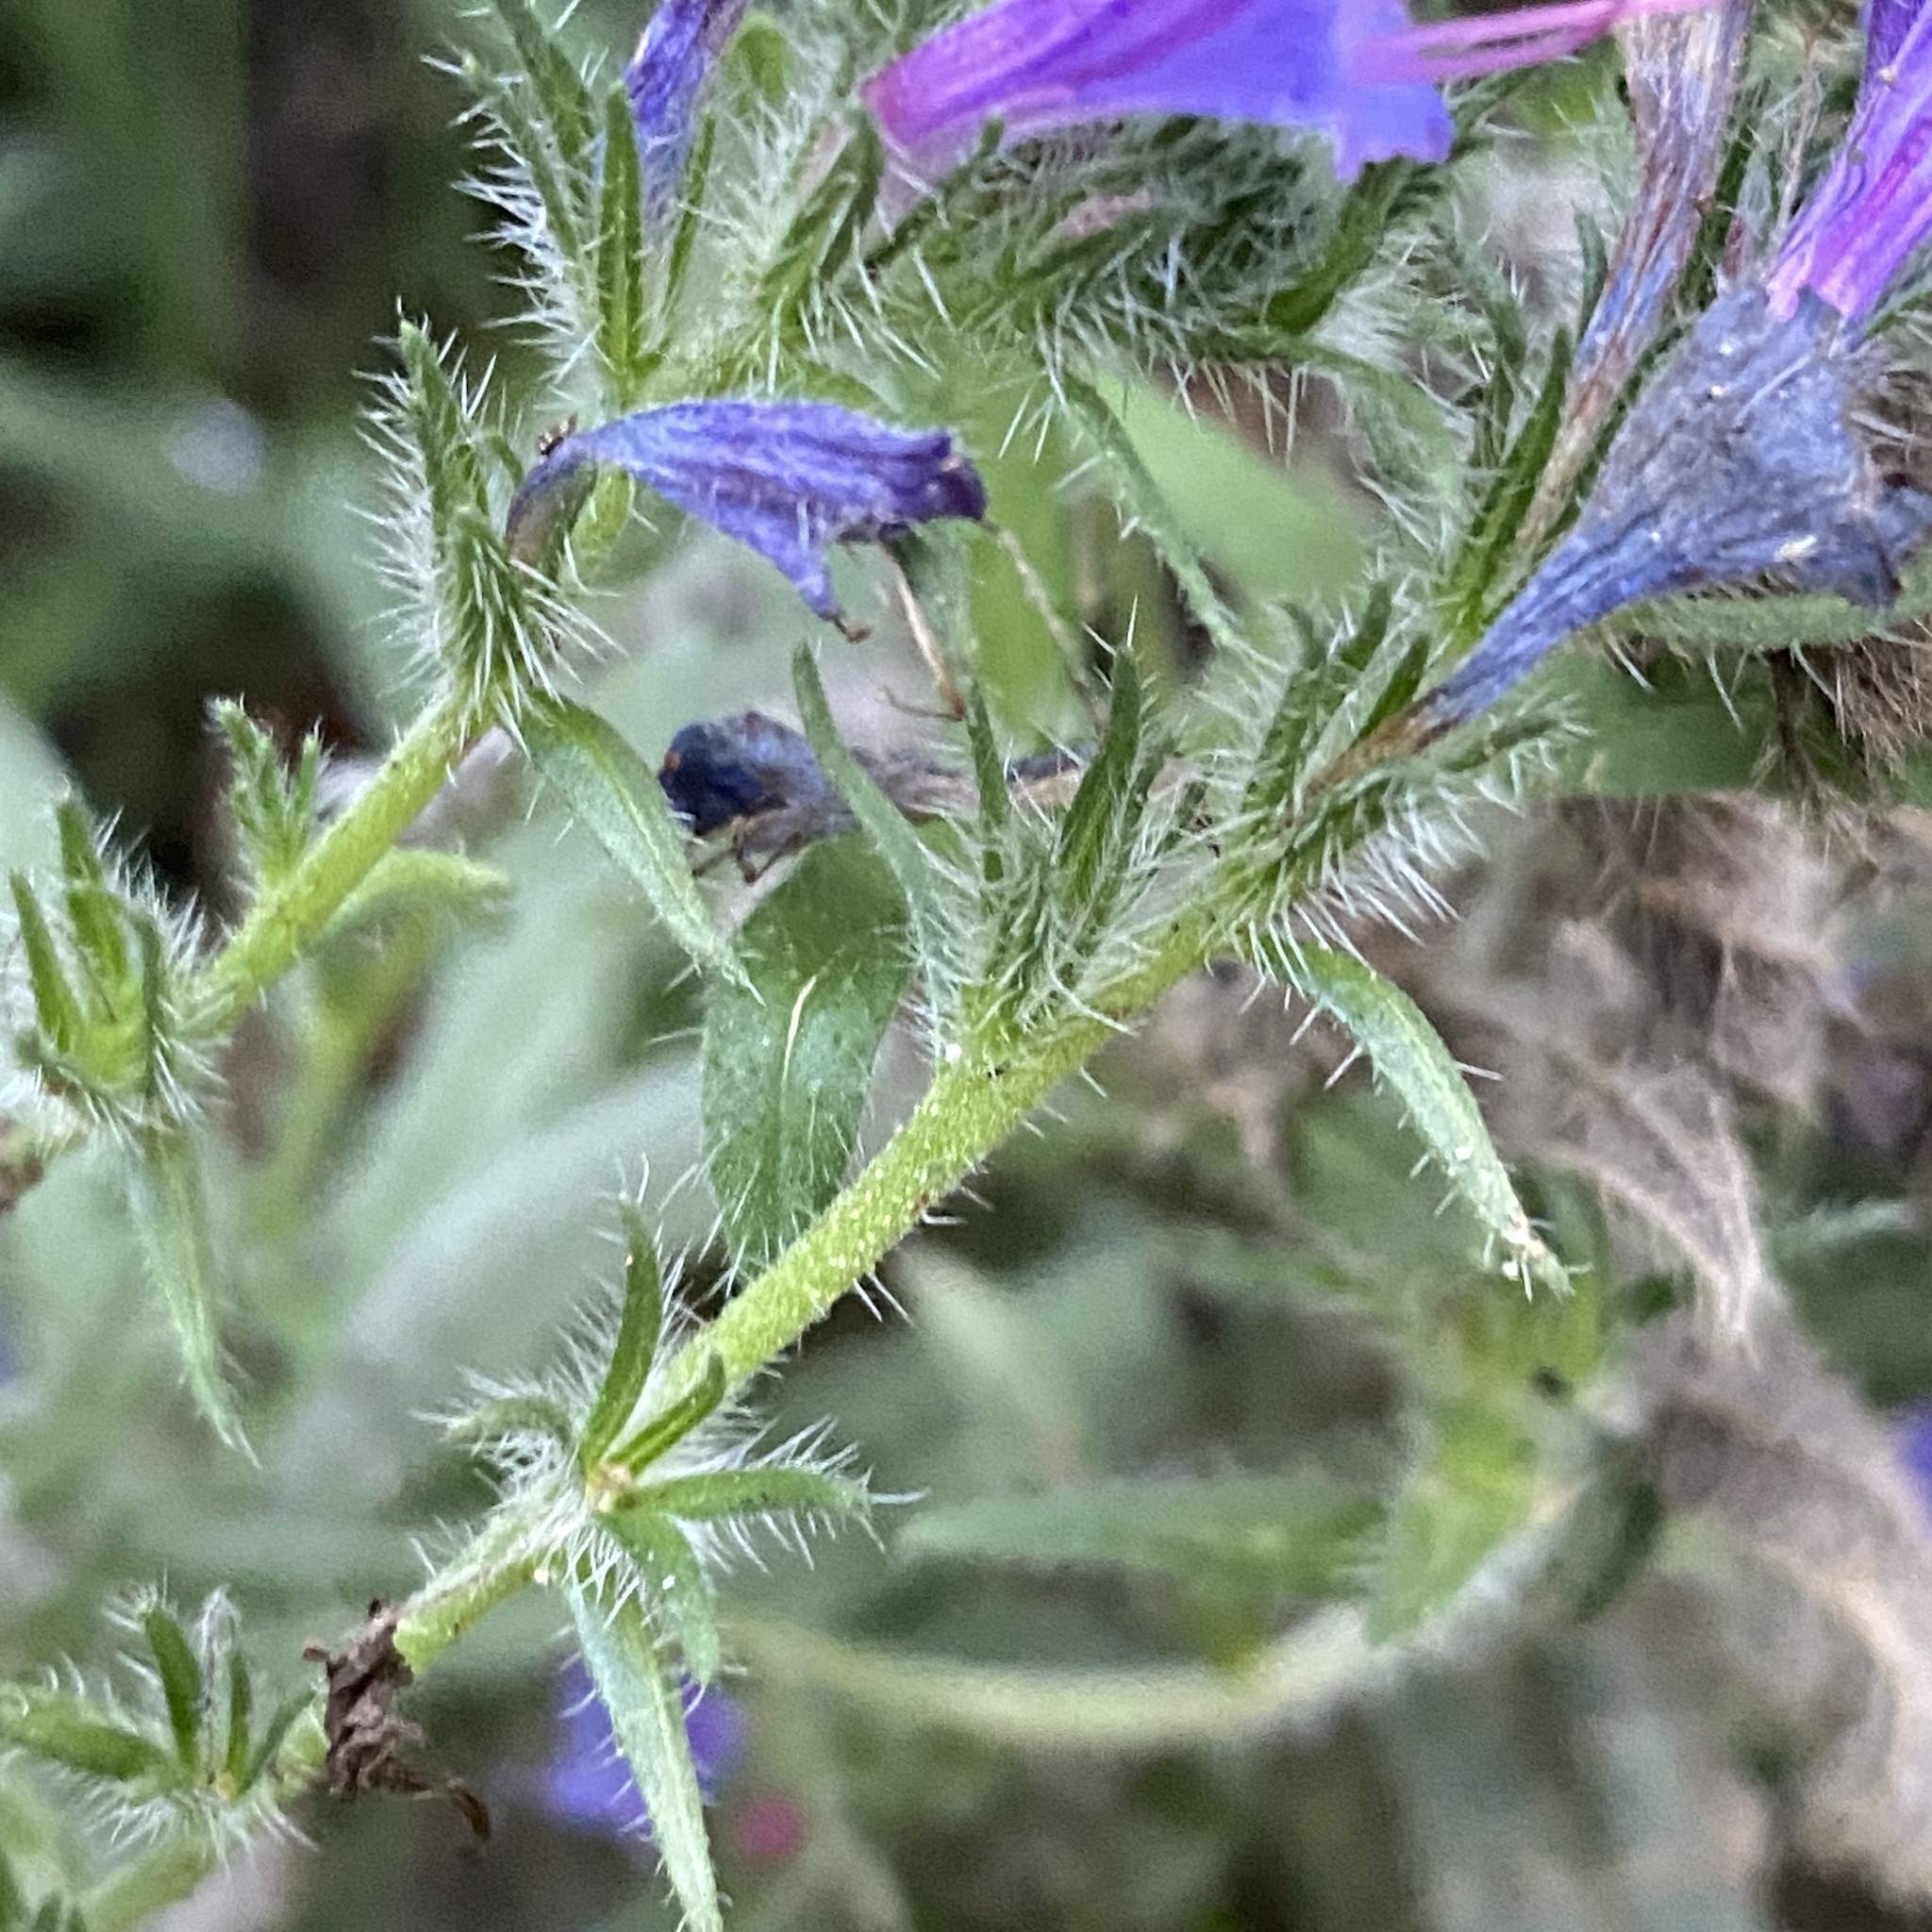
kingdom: Plantae
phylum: Tracheophyta
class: Magnoliopsida
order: Boraginales
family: Boraginaceae
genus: Echium
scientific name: Echium vulgare
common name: Common viper's bugloss
